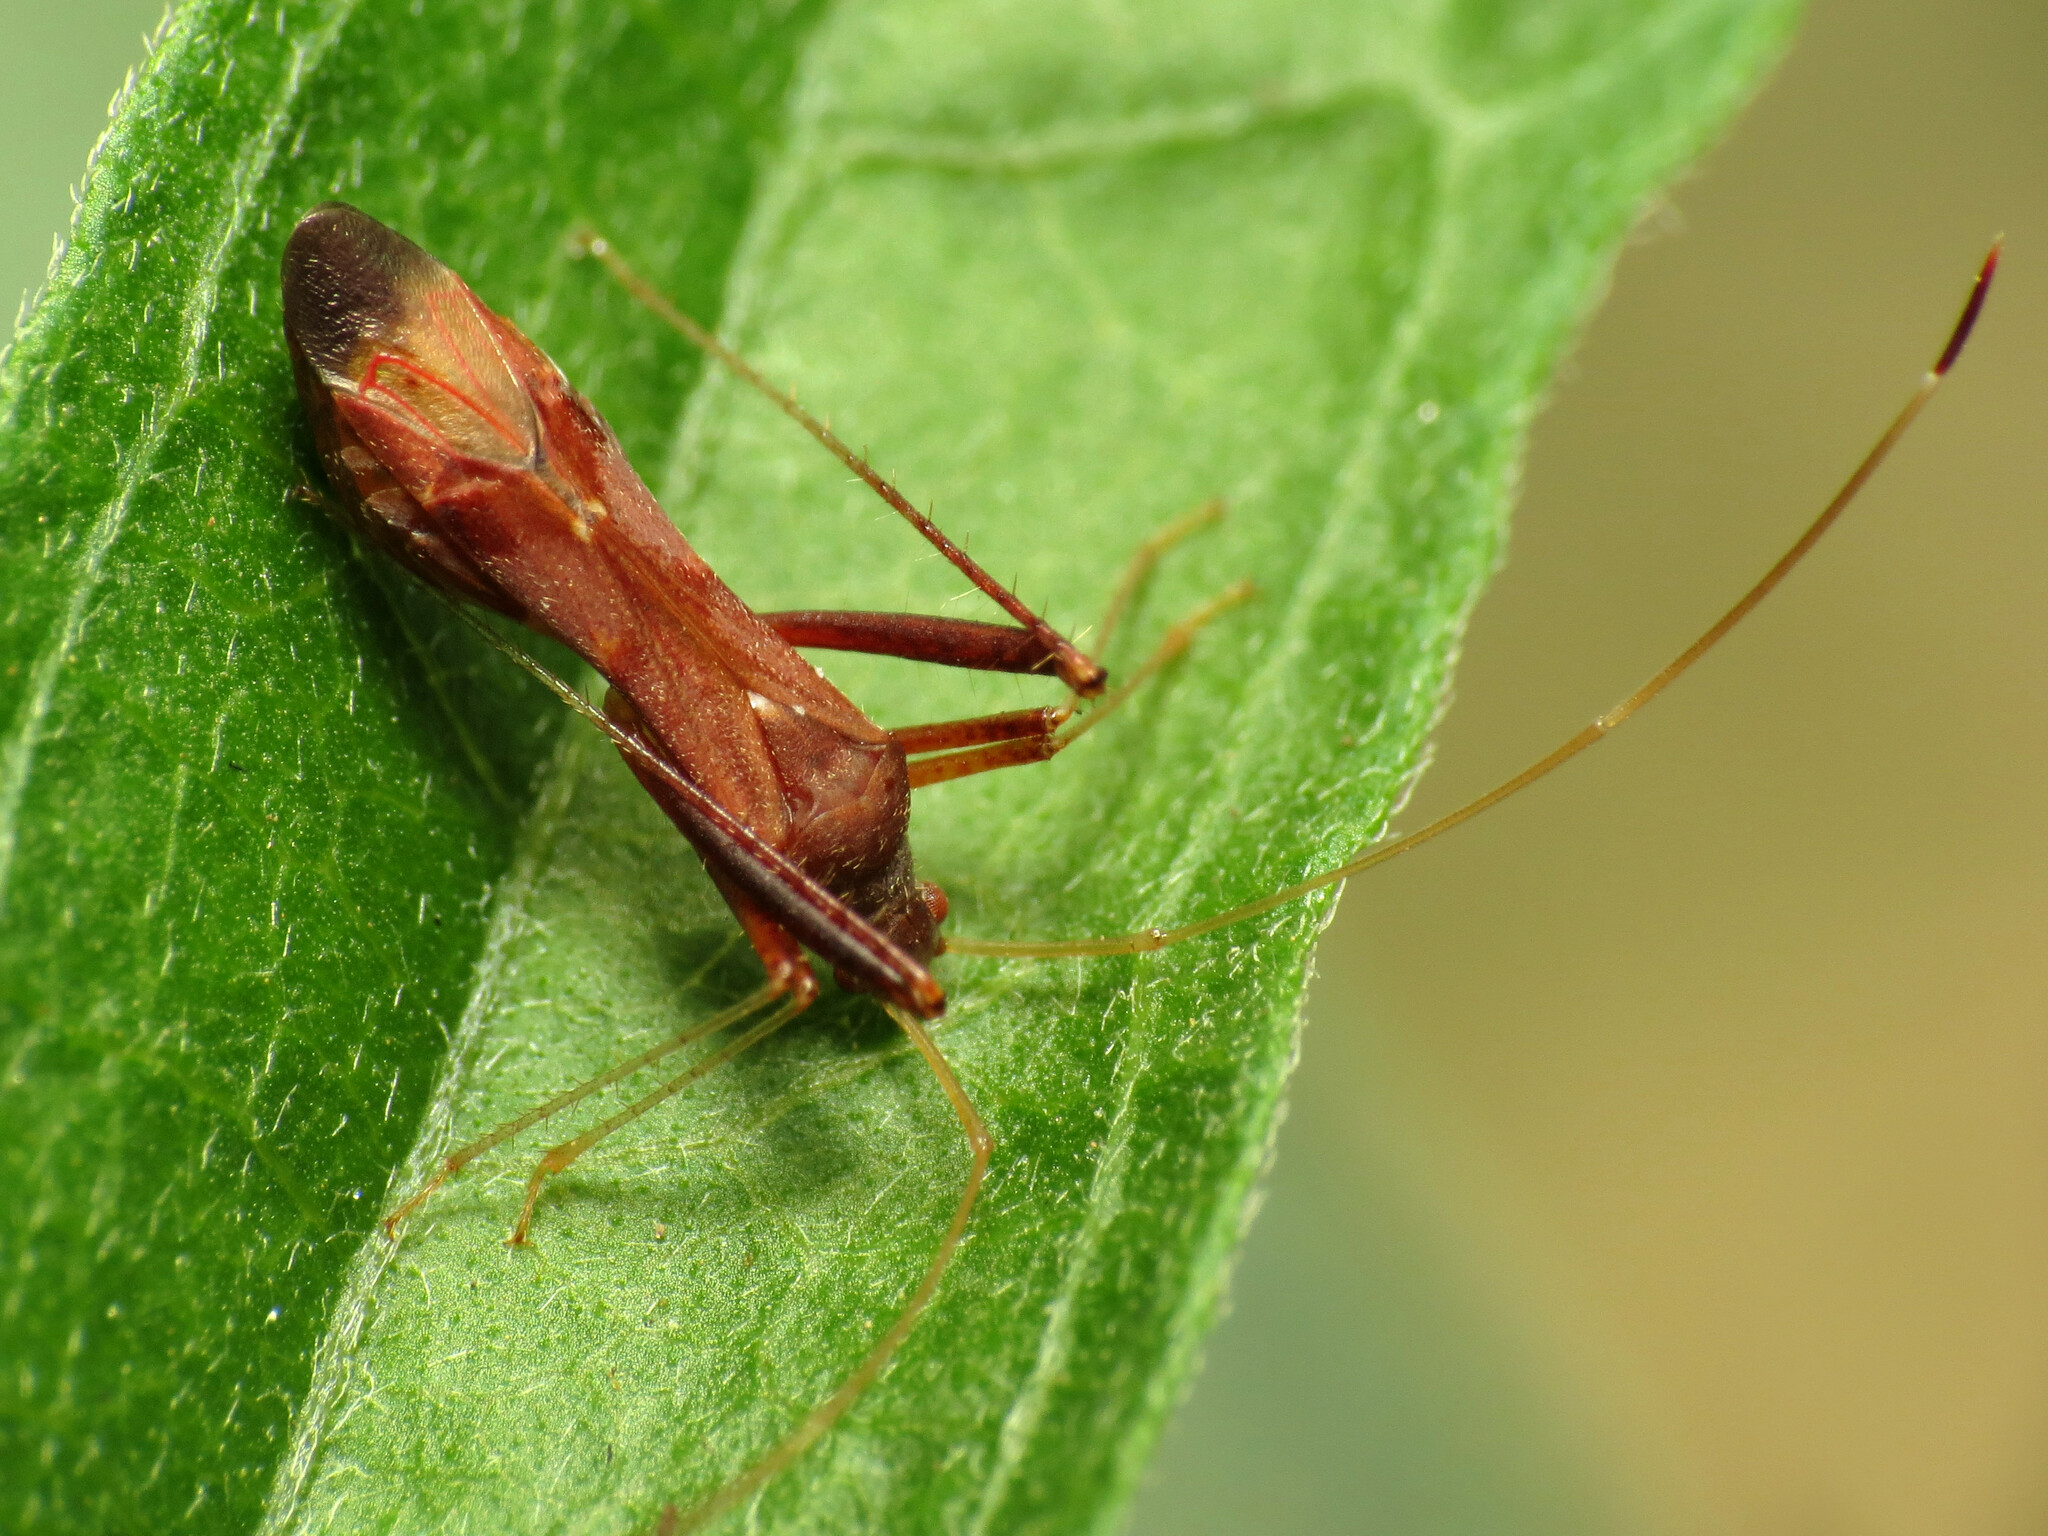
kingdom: Animalia
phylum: Arthropoda
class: Insecta
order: Hemiptera
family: Miridae
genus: Paraxenetus
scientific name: Paraxenetus guttulatus
